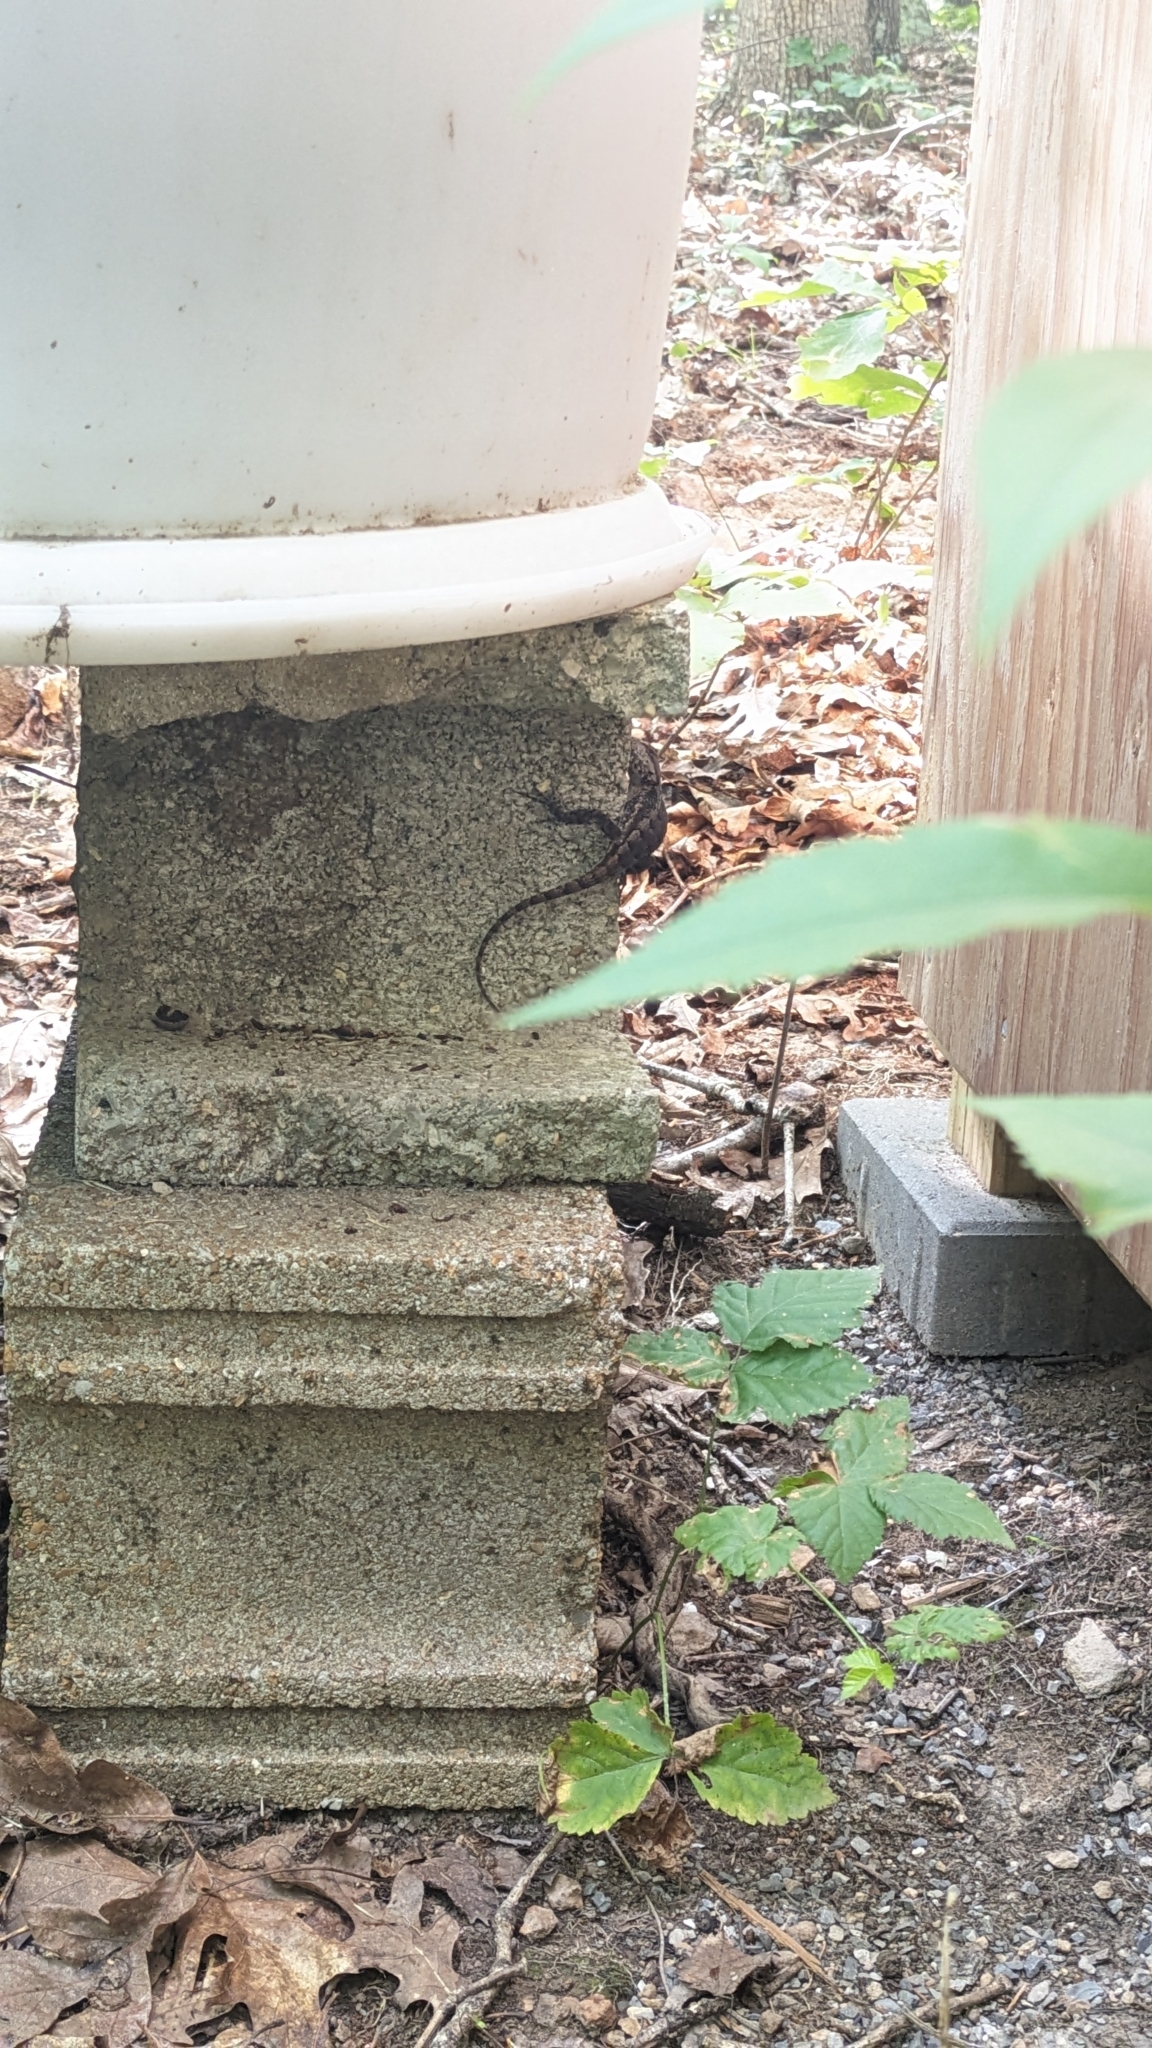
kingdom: Animalia
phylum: Chordata
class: Squamata
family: Phrynosomatidae
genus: Sceloporus
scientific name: Sceloporus consobrinus
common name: Southern prairie lizard
